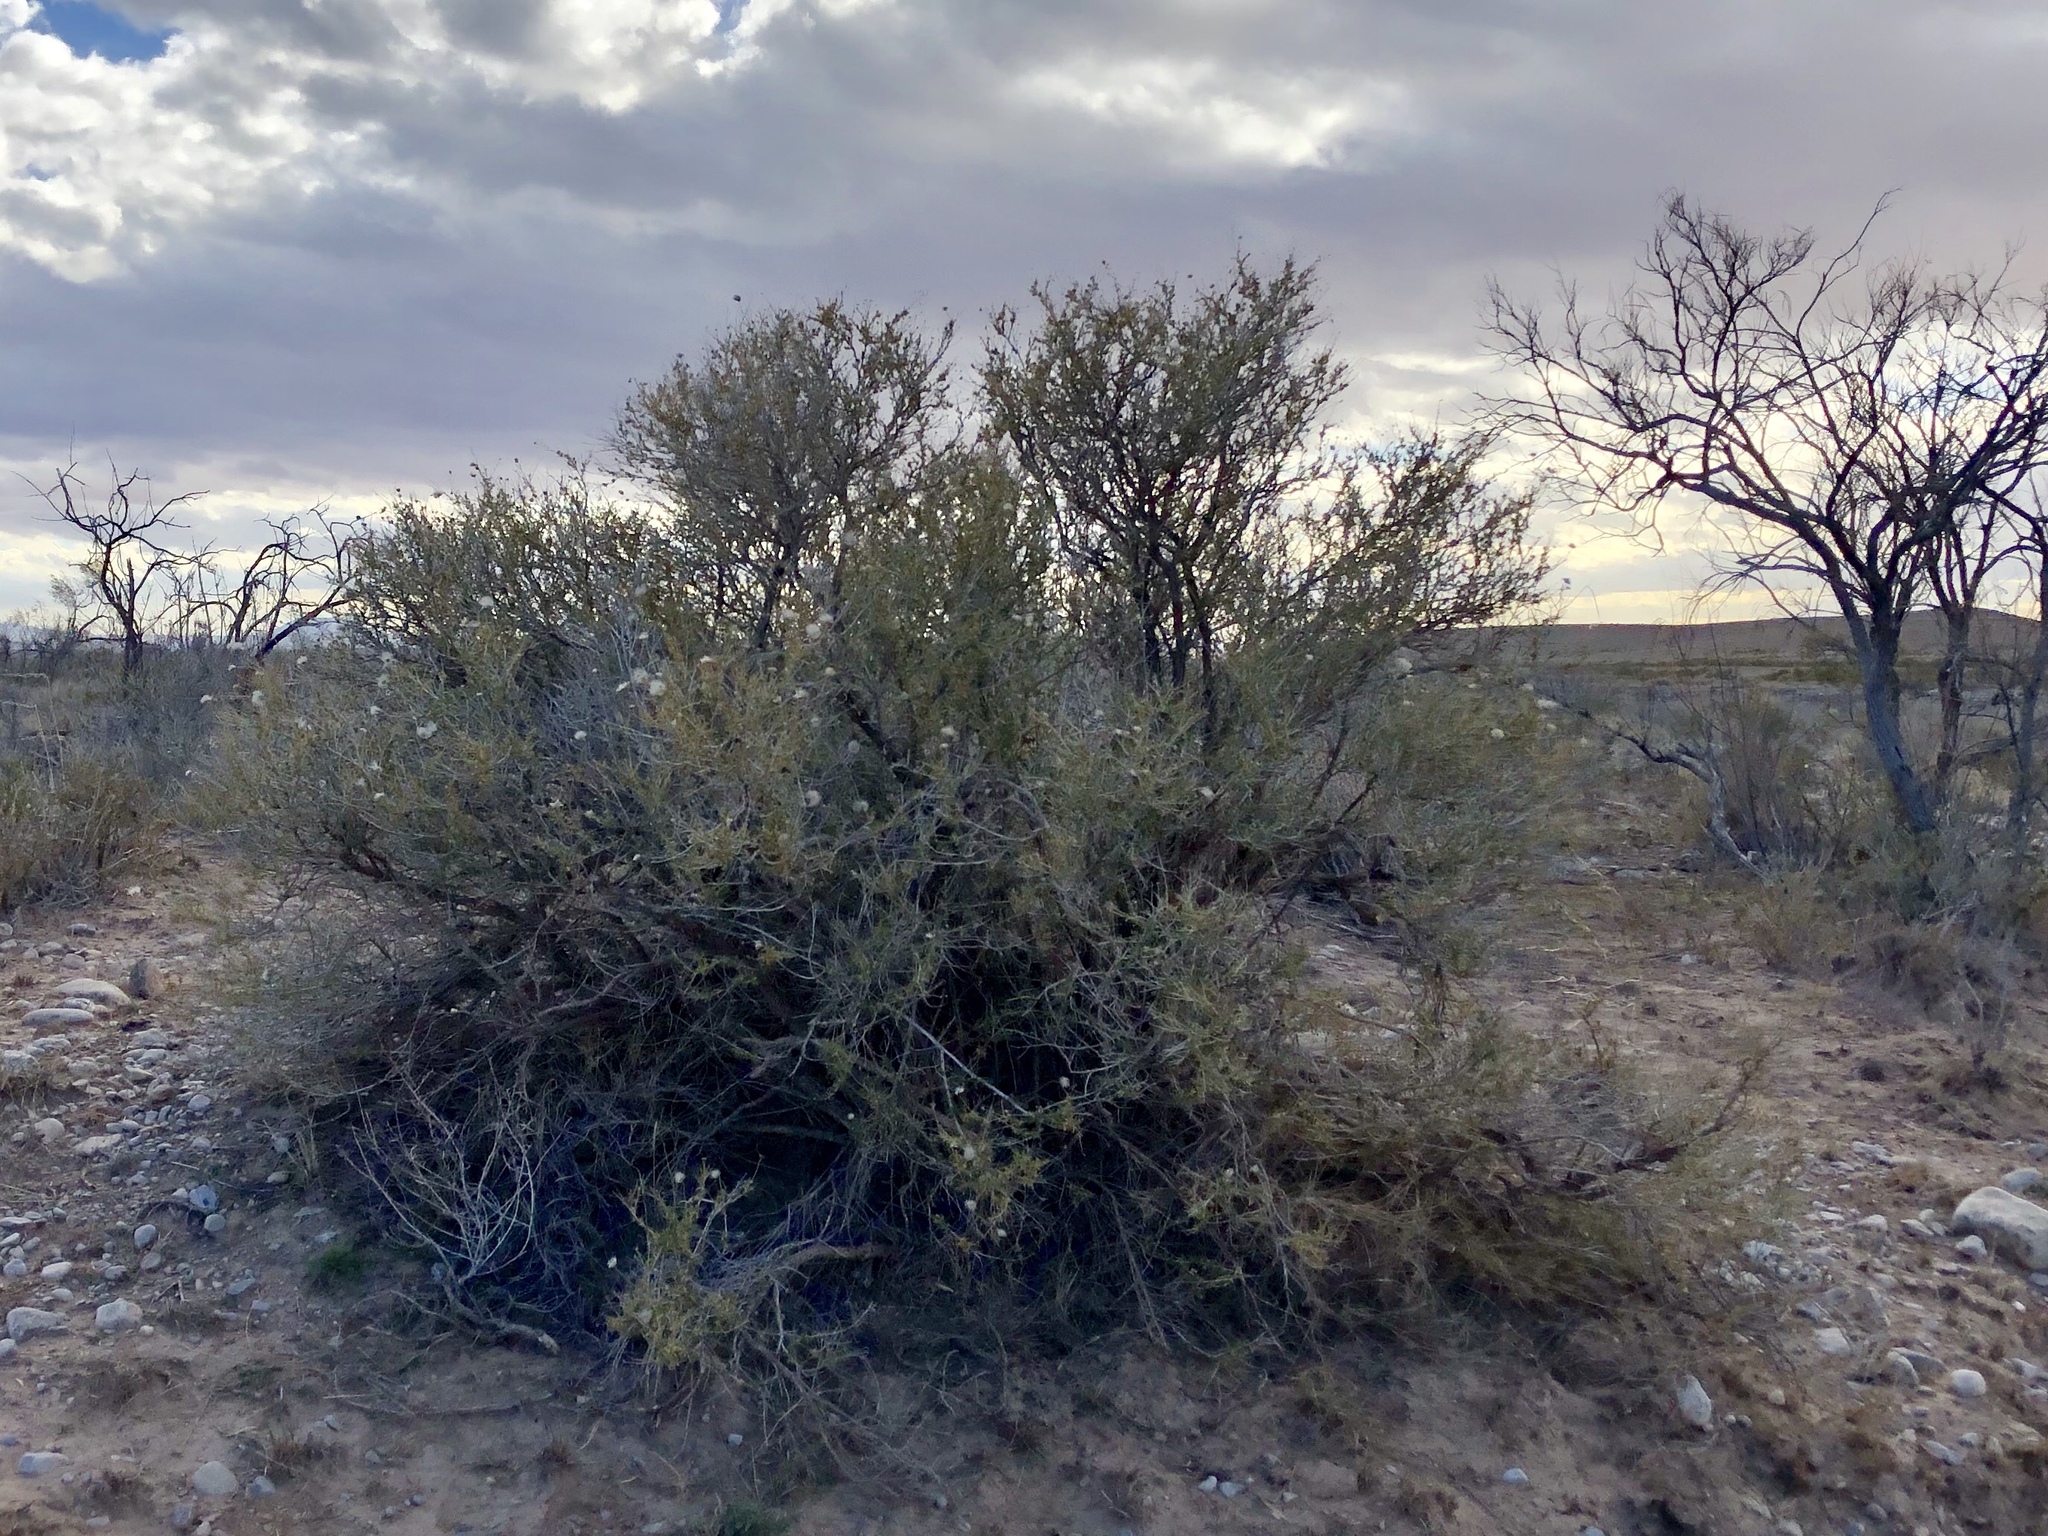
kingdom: Plantae
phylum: Tracheophyta
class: Magnoliopsida
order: Rosales
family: Rosaceae
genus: Fallugia
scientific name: Fallugia paradoxa
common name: Apache-plume
